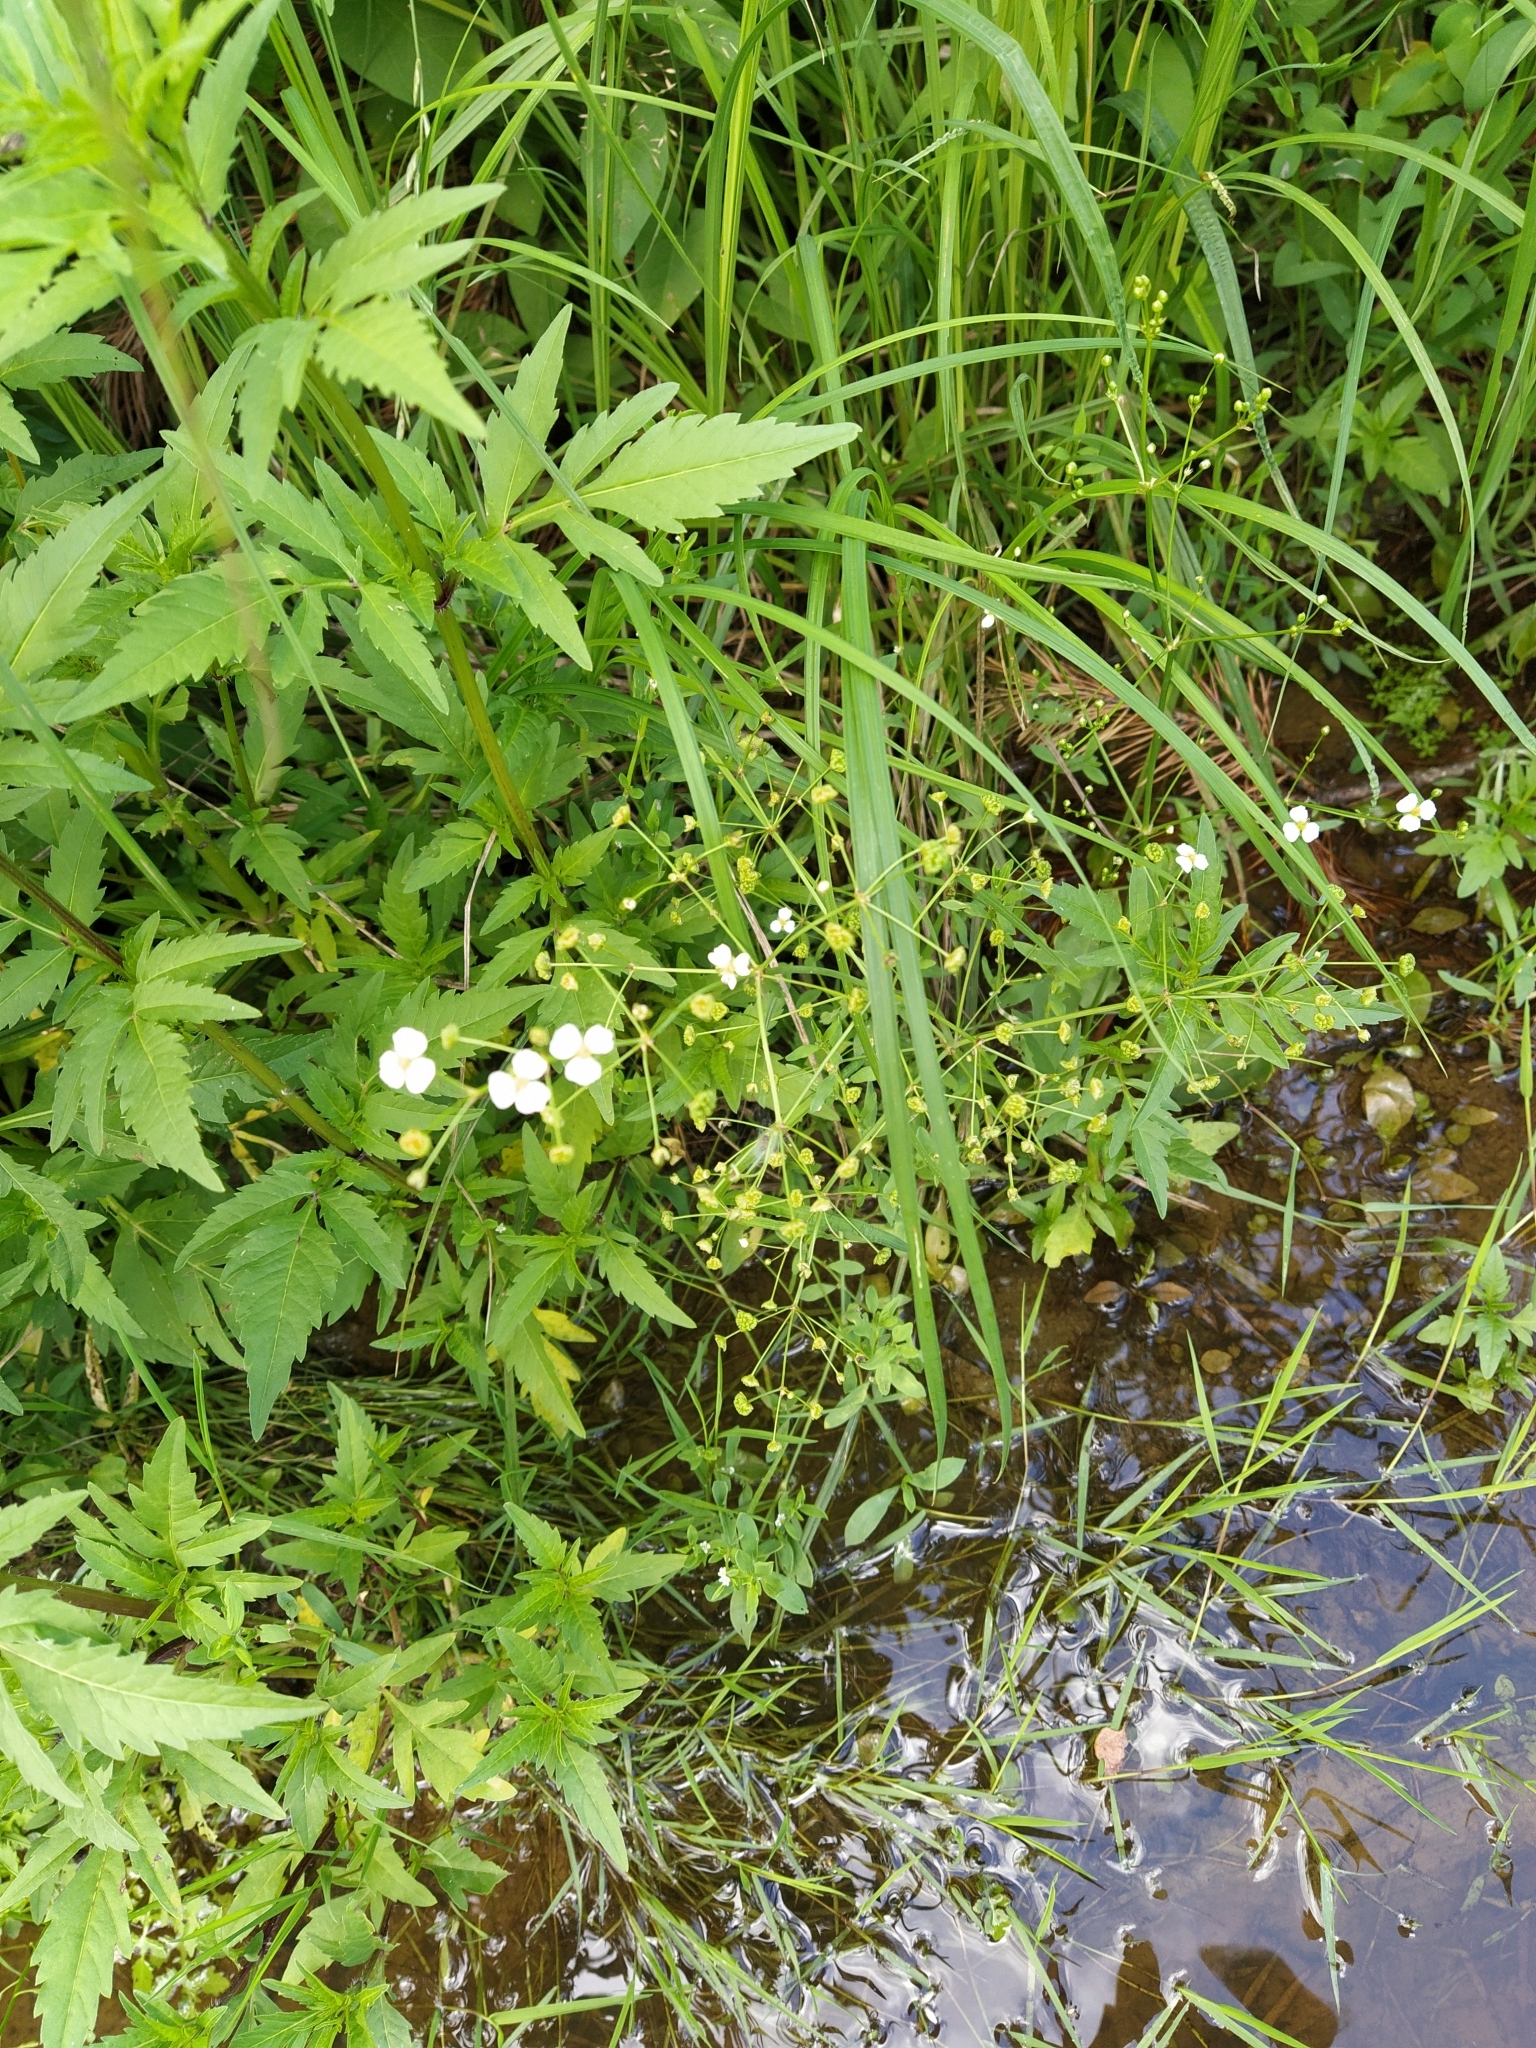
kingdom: Plantae
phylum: Tracheophyta
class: Liliopsida
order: Alismatales
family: Alismataceae
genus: Alisma
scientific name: Alisma plantago-aquatica
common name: Water-plantain
